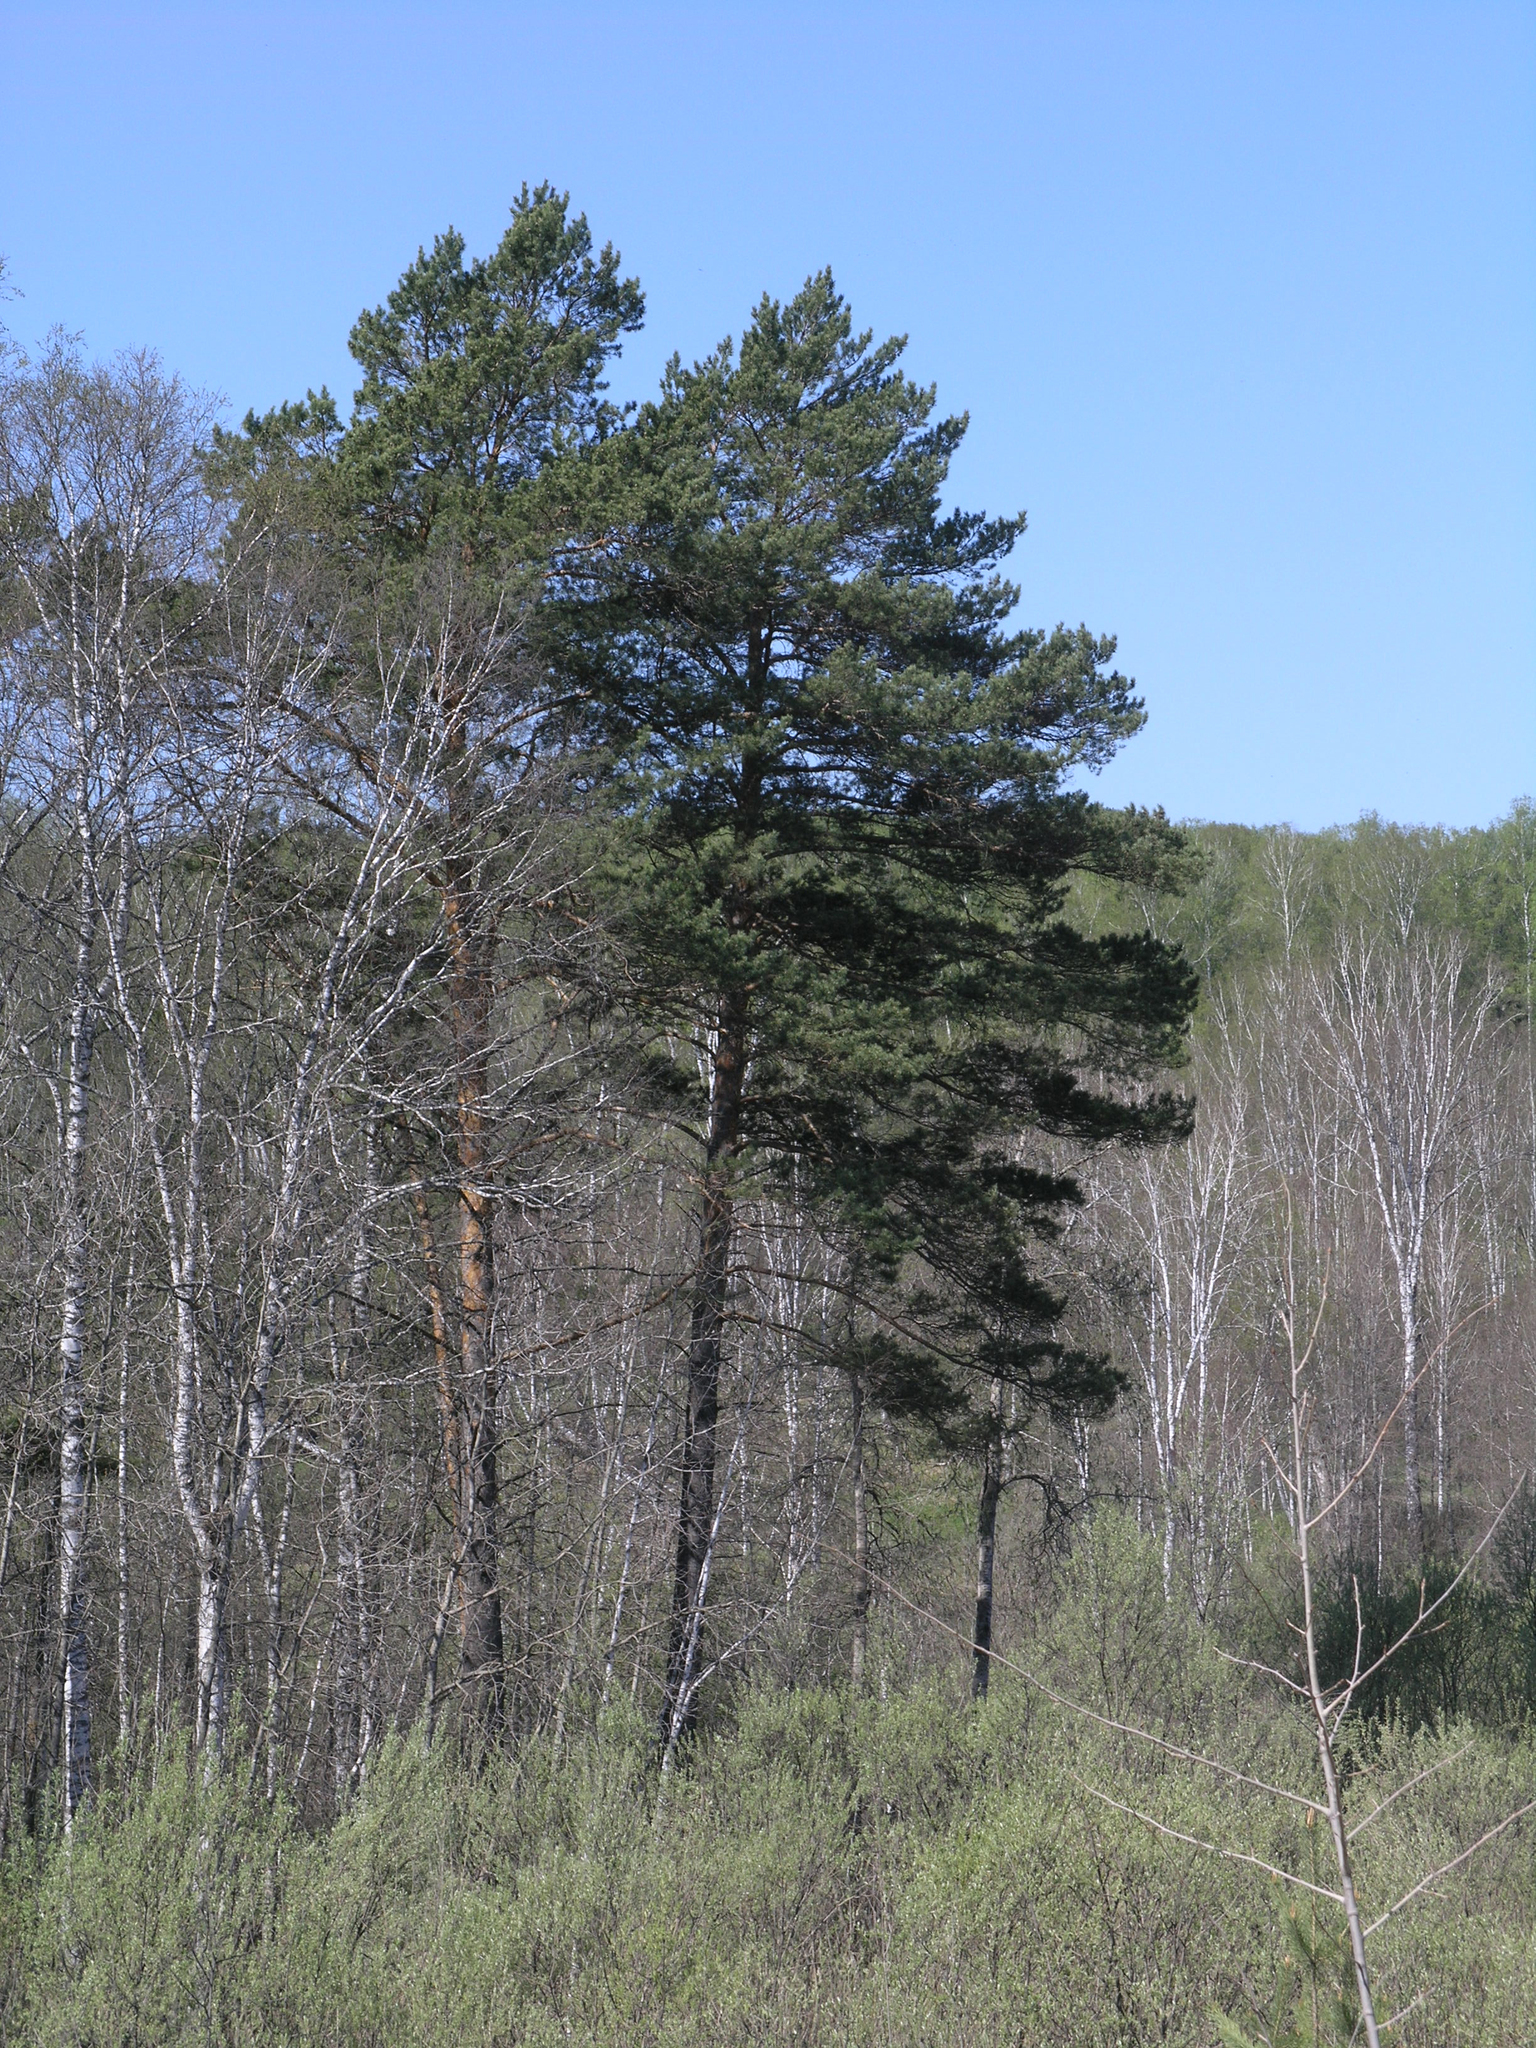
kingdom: Plantae
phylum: Tracheophyta
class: Pinopsida
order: Pinales
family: Pinaceae
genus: Pinus
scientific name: Pinus sylvestris
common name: Scots pine
